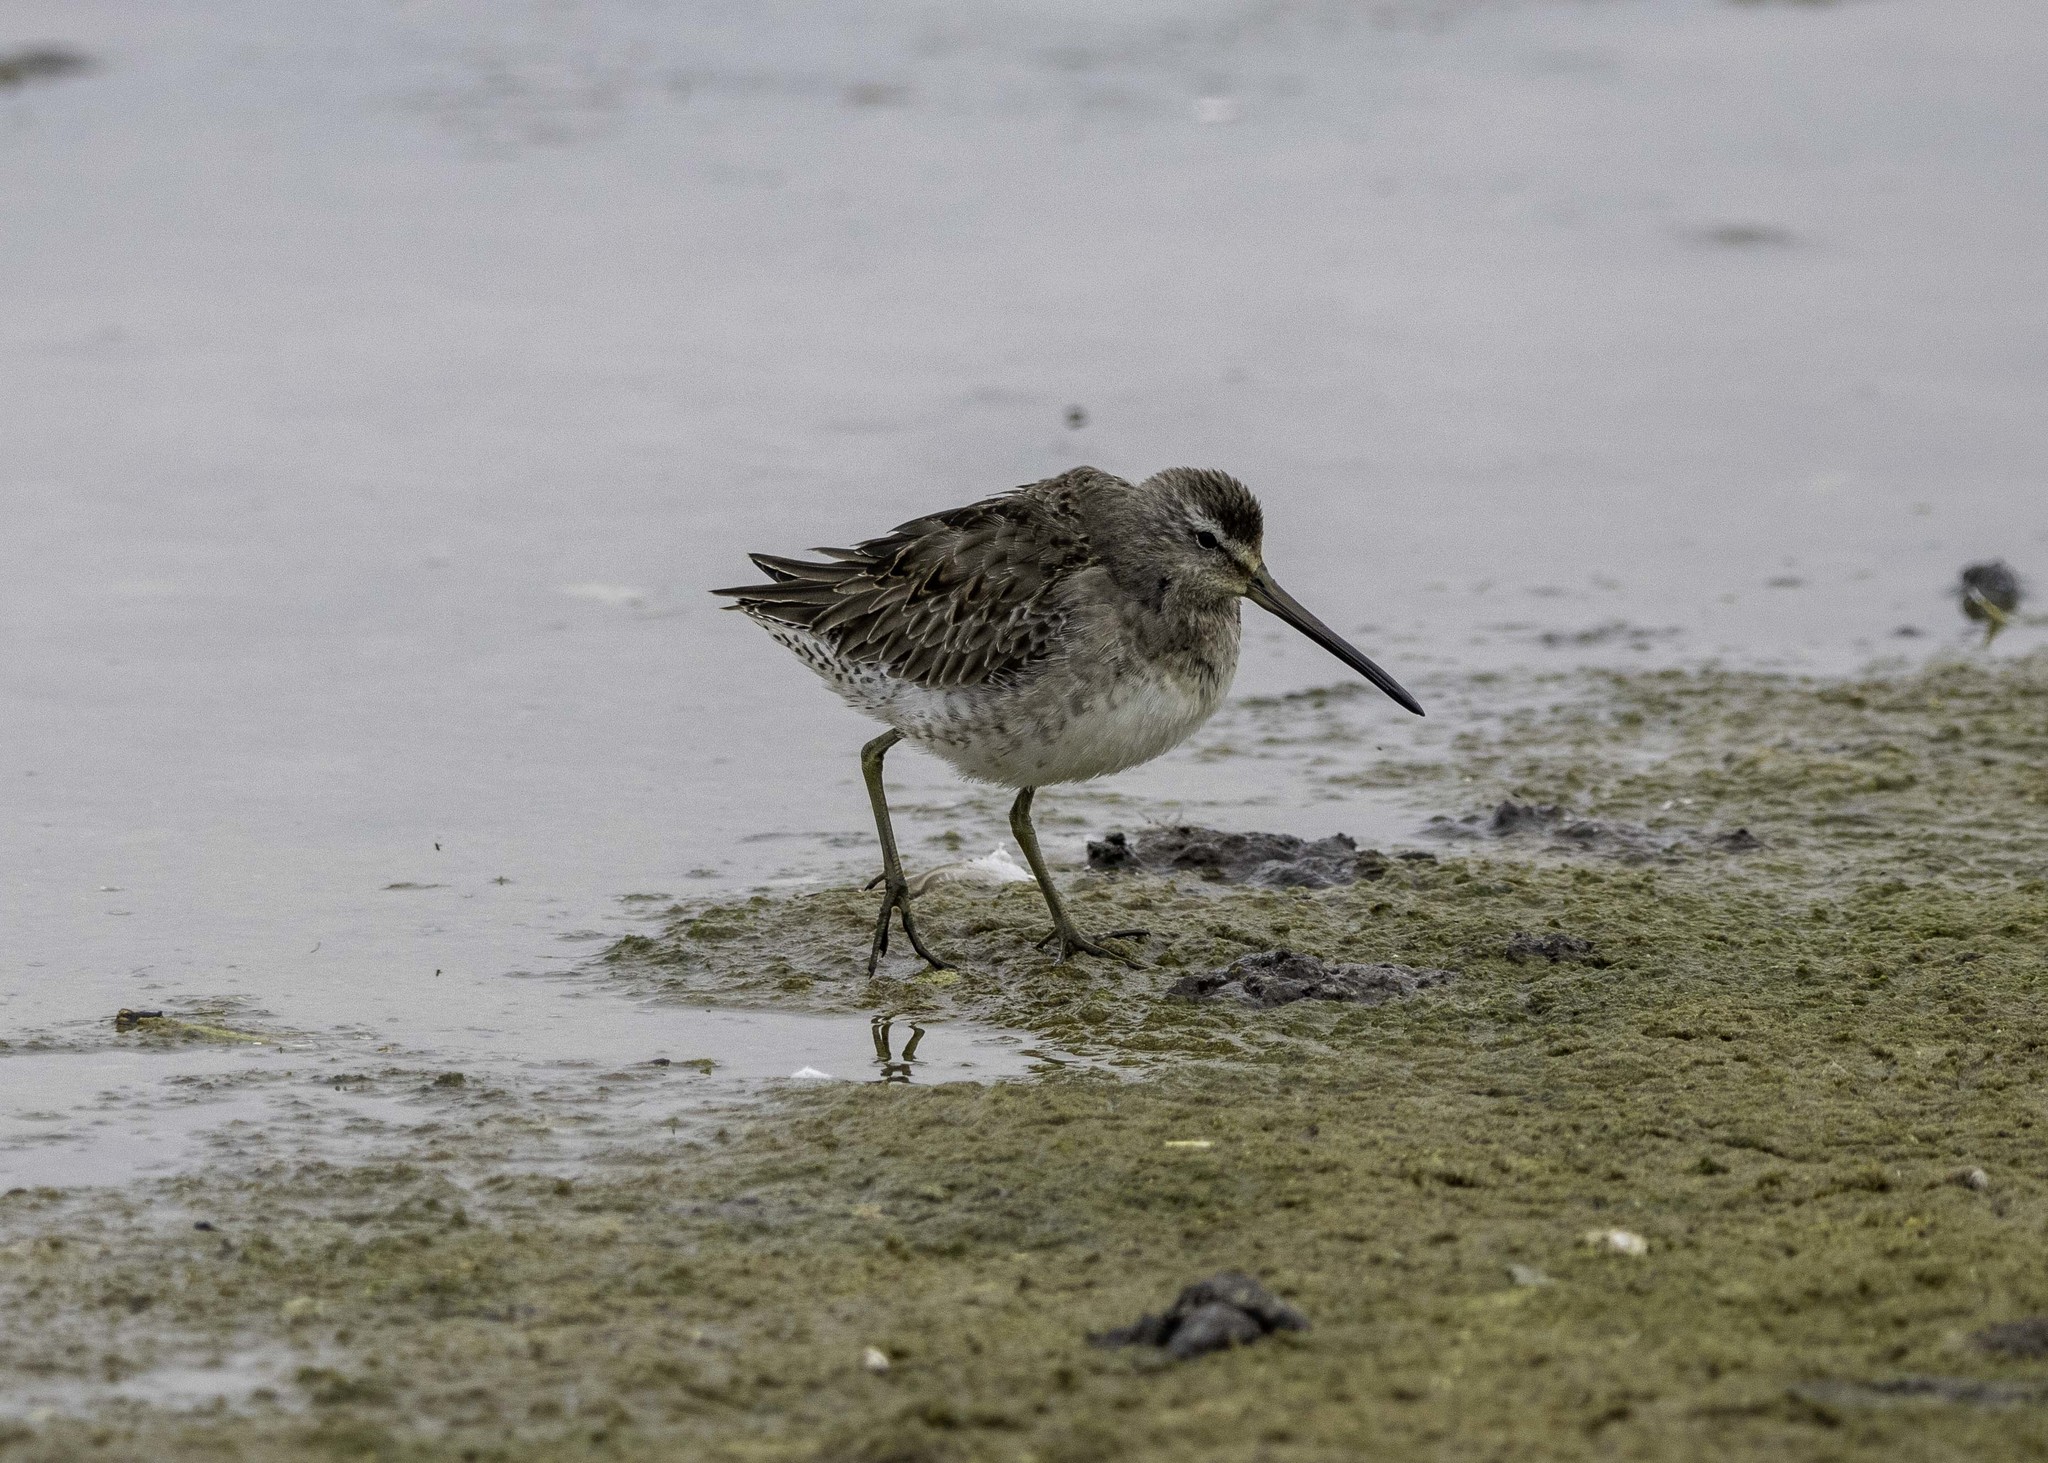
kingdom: Animalia
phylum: Chordata
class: Aves
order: Charadriiformes
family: Scolopacidae
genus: Limnodromus
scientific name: Limnodromus scolopaceus
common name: Long-billed dowitcher
